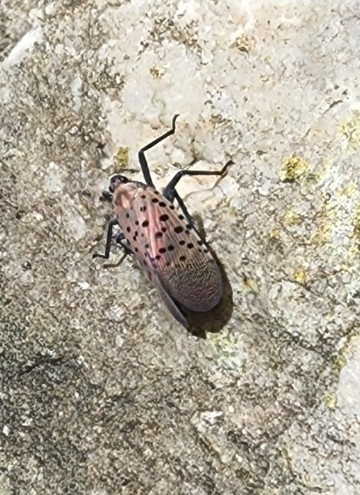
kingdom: Animalia
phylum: Arthropoda
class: Insecta
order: Hemiptera
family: Fulgoridae
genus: Lycorma
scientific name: Lycorma delicatula
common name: Spotted lanternfly
